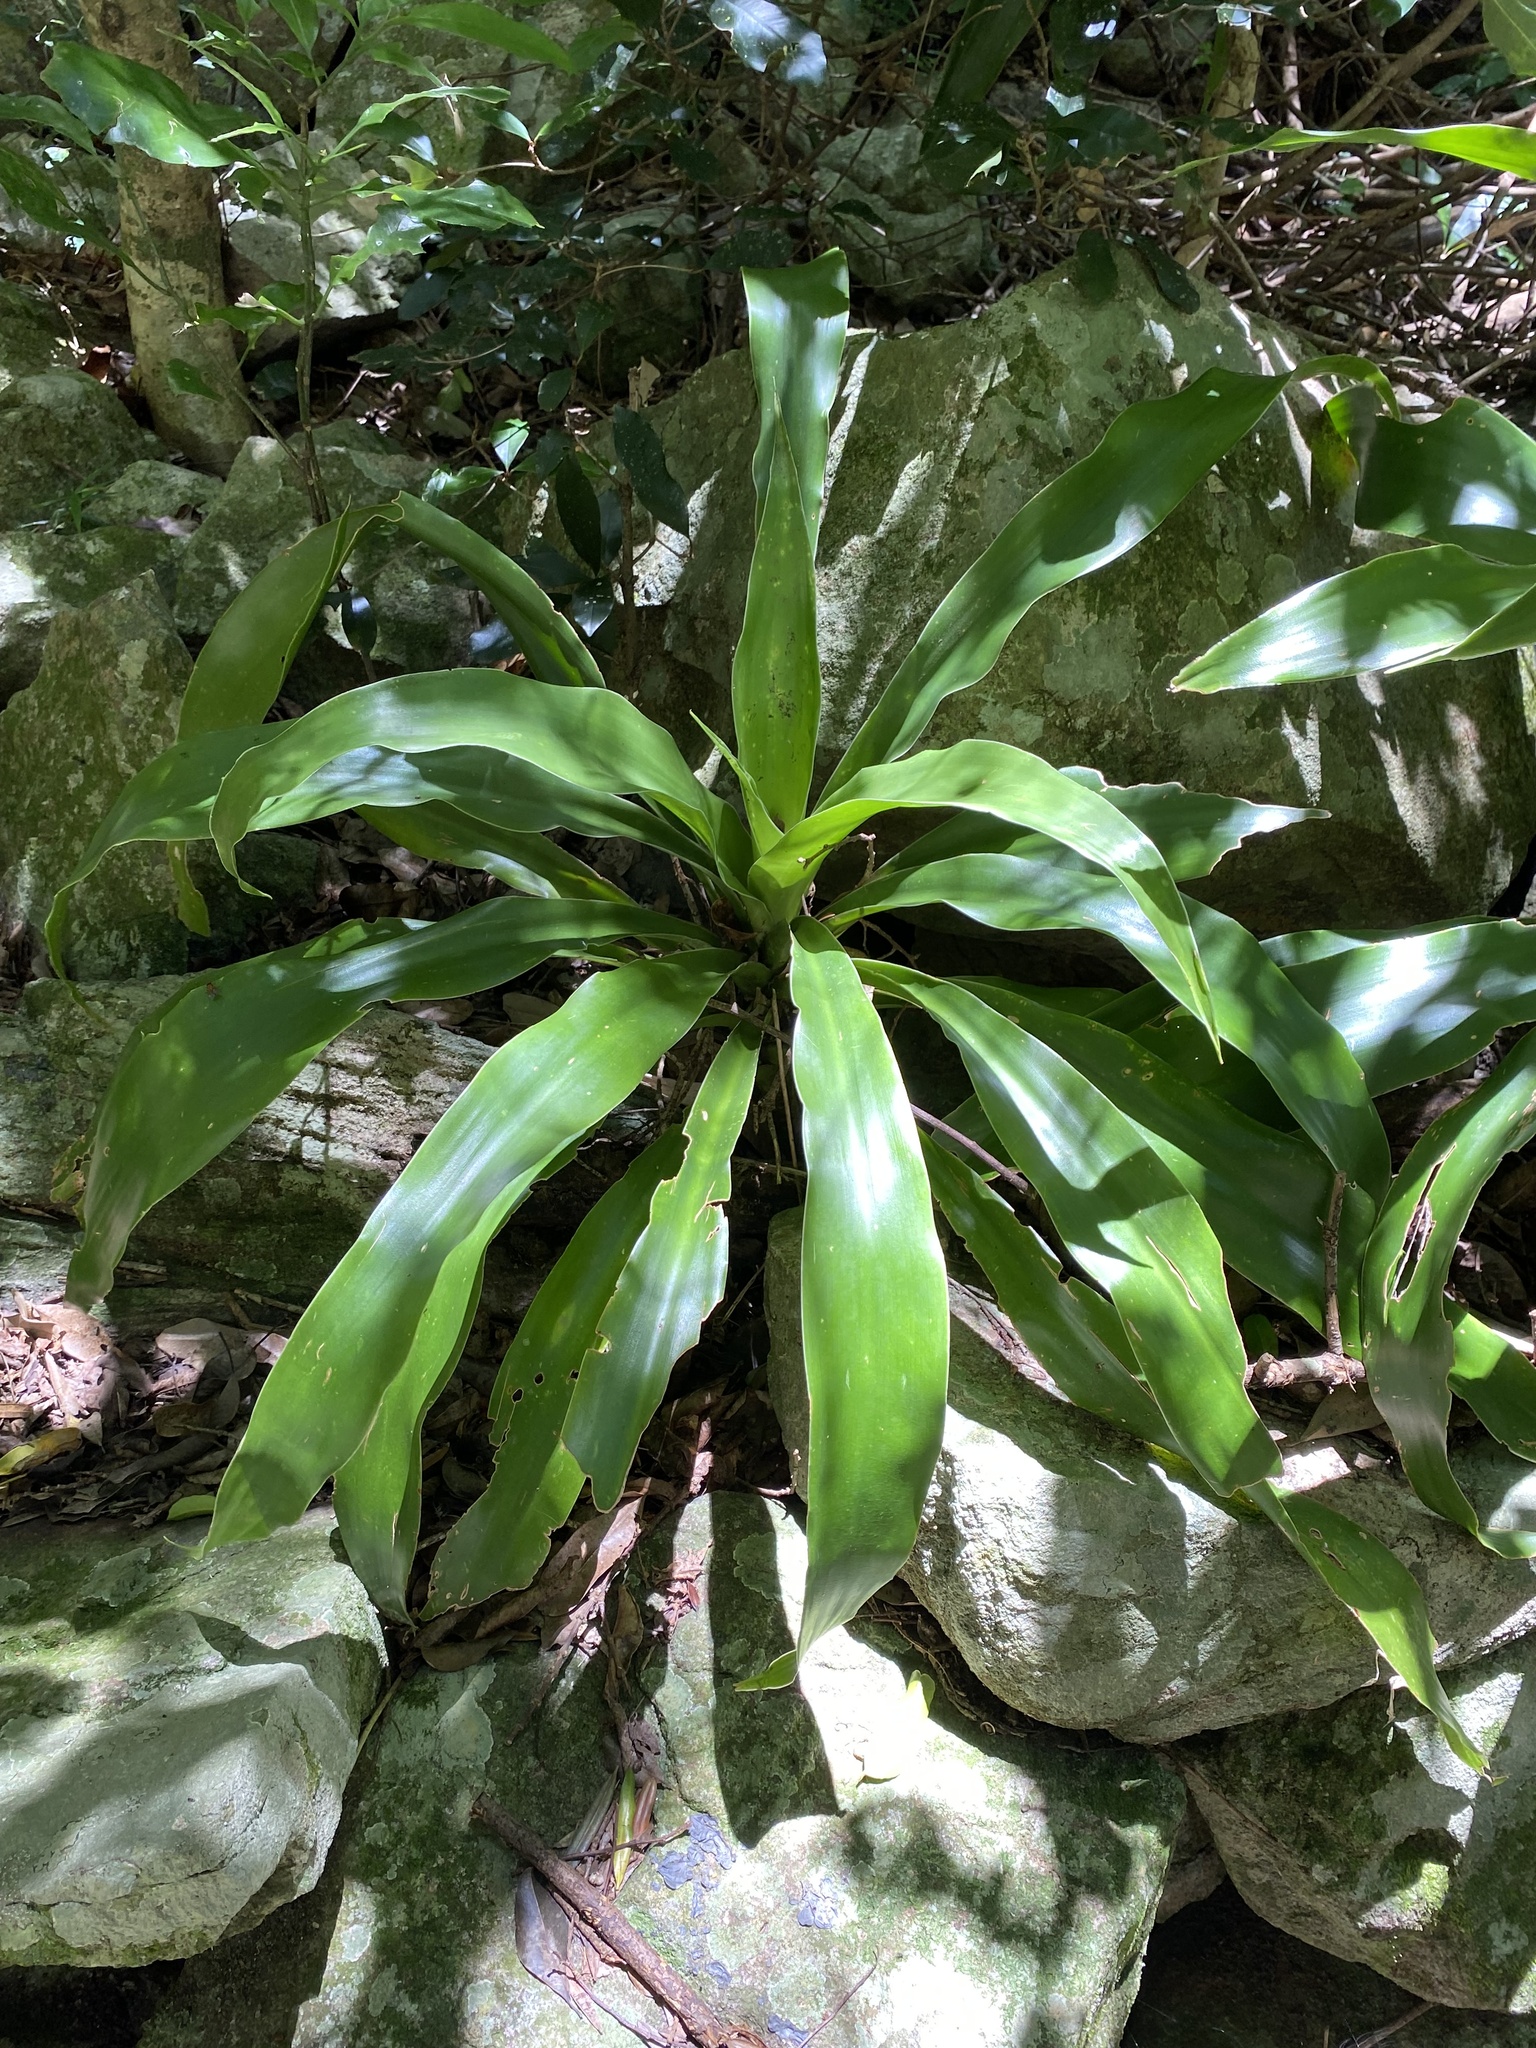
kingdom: Plantae
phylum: Tracheophyta
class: Liliopsida
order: Asparagales
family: Asparagaceae
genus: Dracaena
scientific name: Dracaena aletriformis
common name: Large-leaved dragon tree
